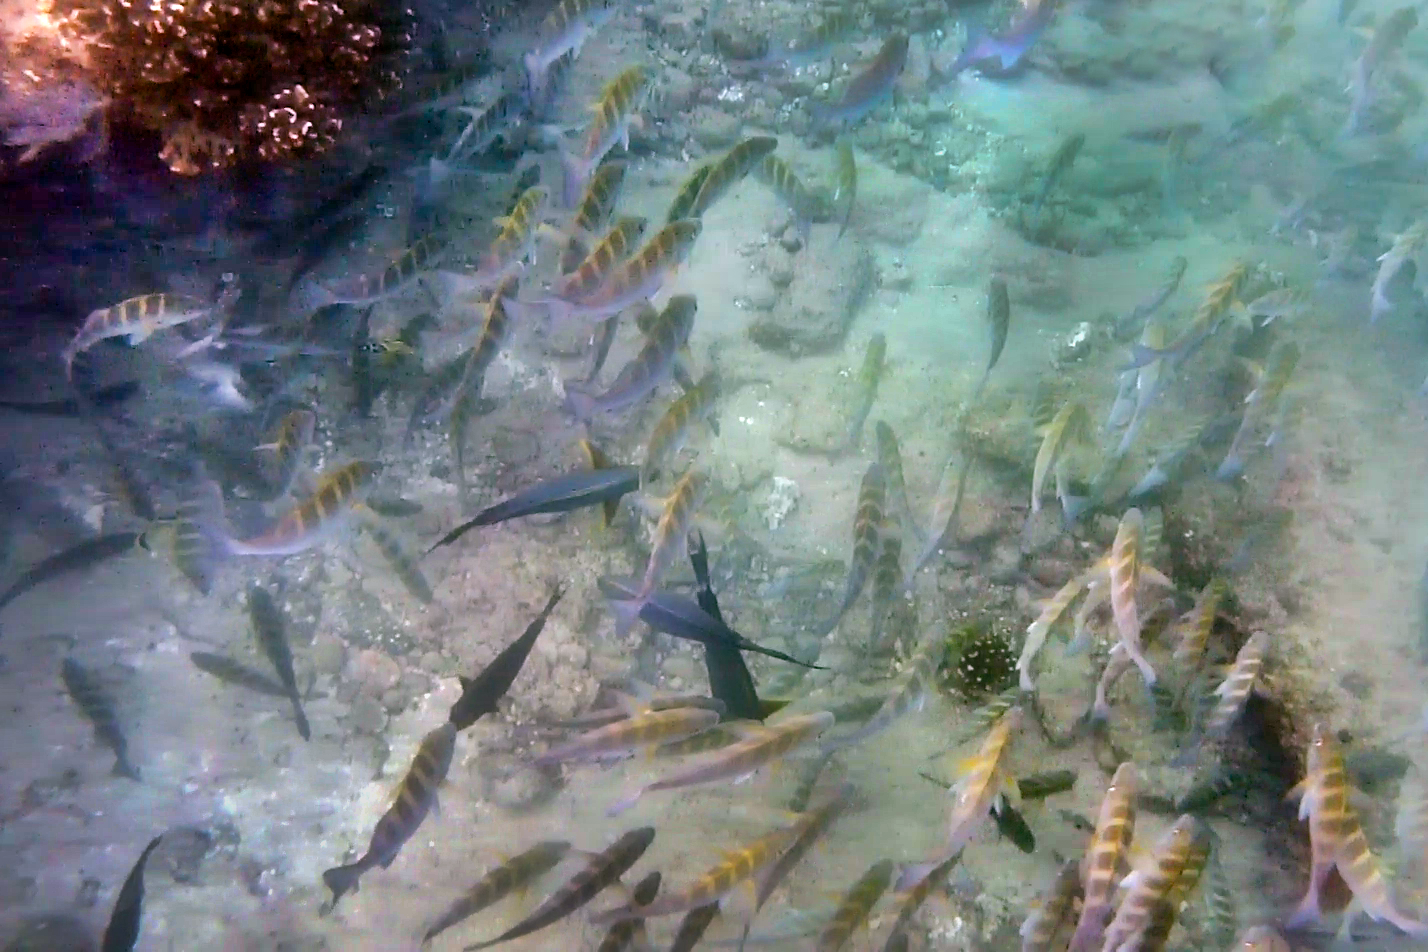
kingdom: Animalia
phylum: Chordata
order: Perciformes
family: Haemulidae
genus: Haemulon
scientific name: Haemulon sexfasciatum
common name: Graybar grunt
